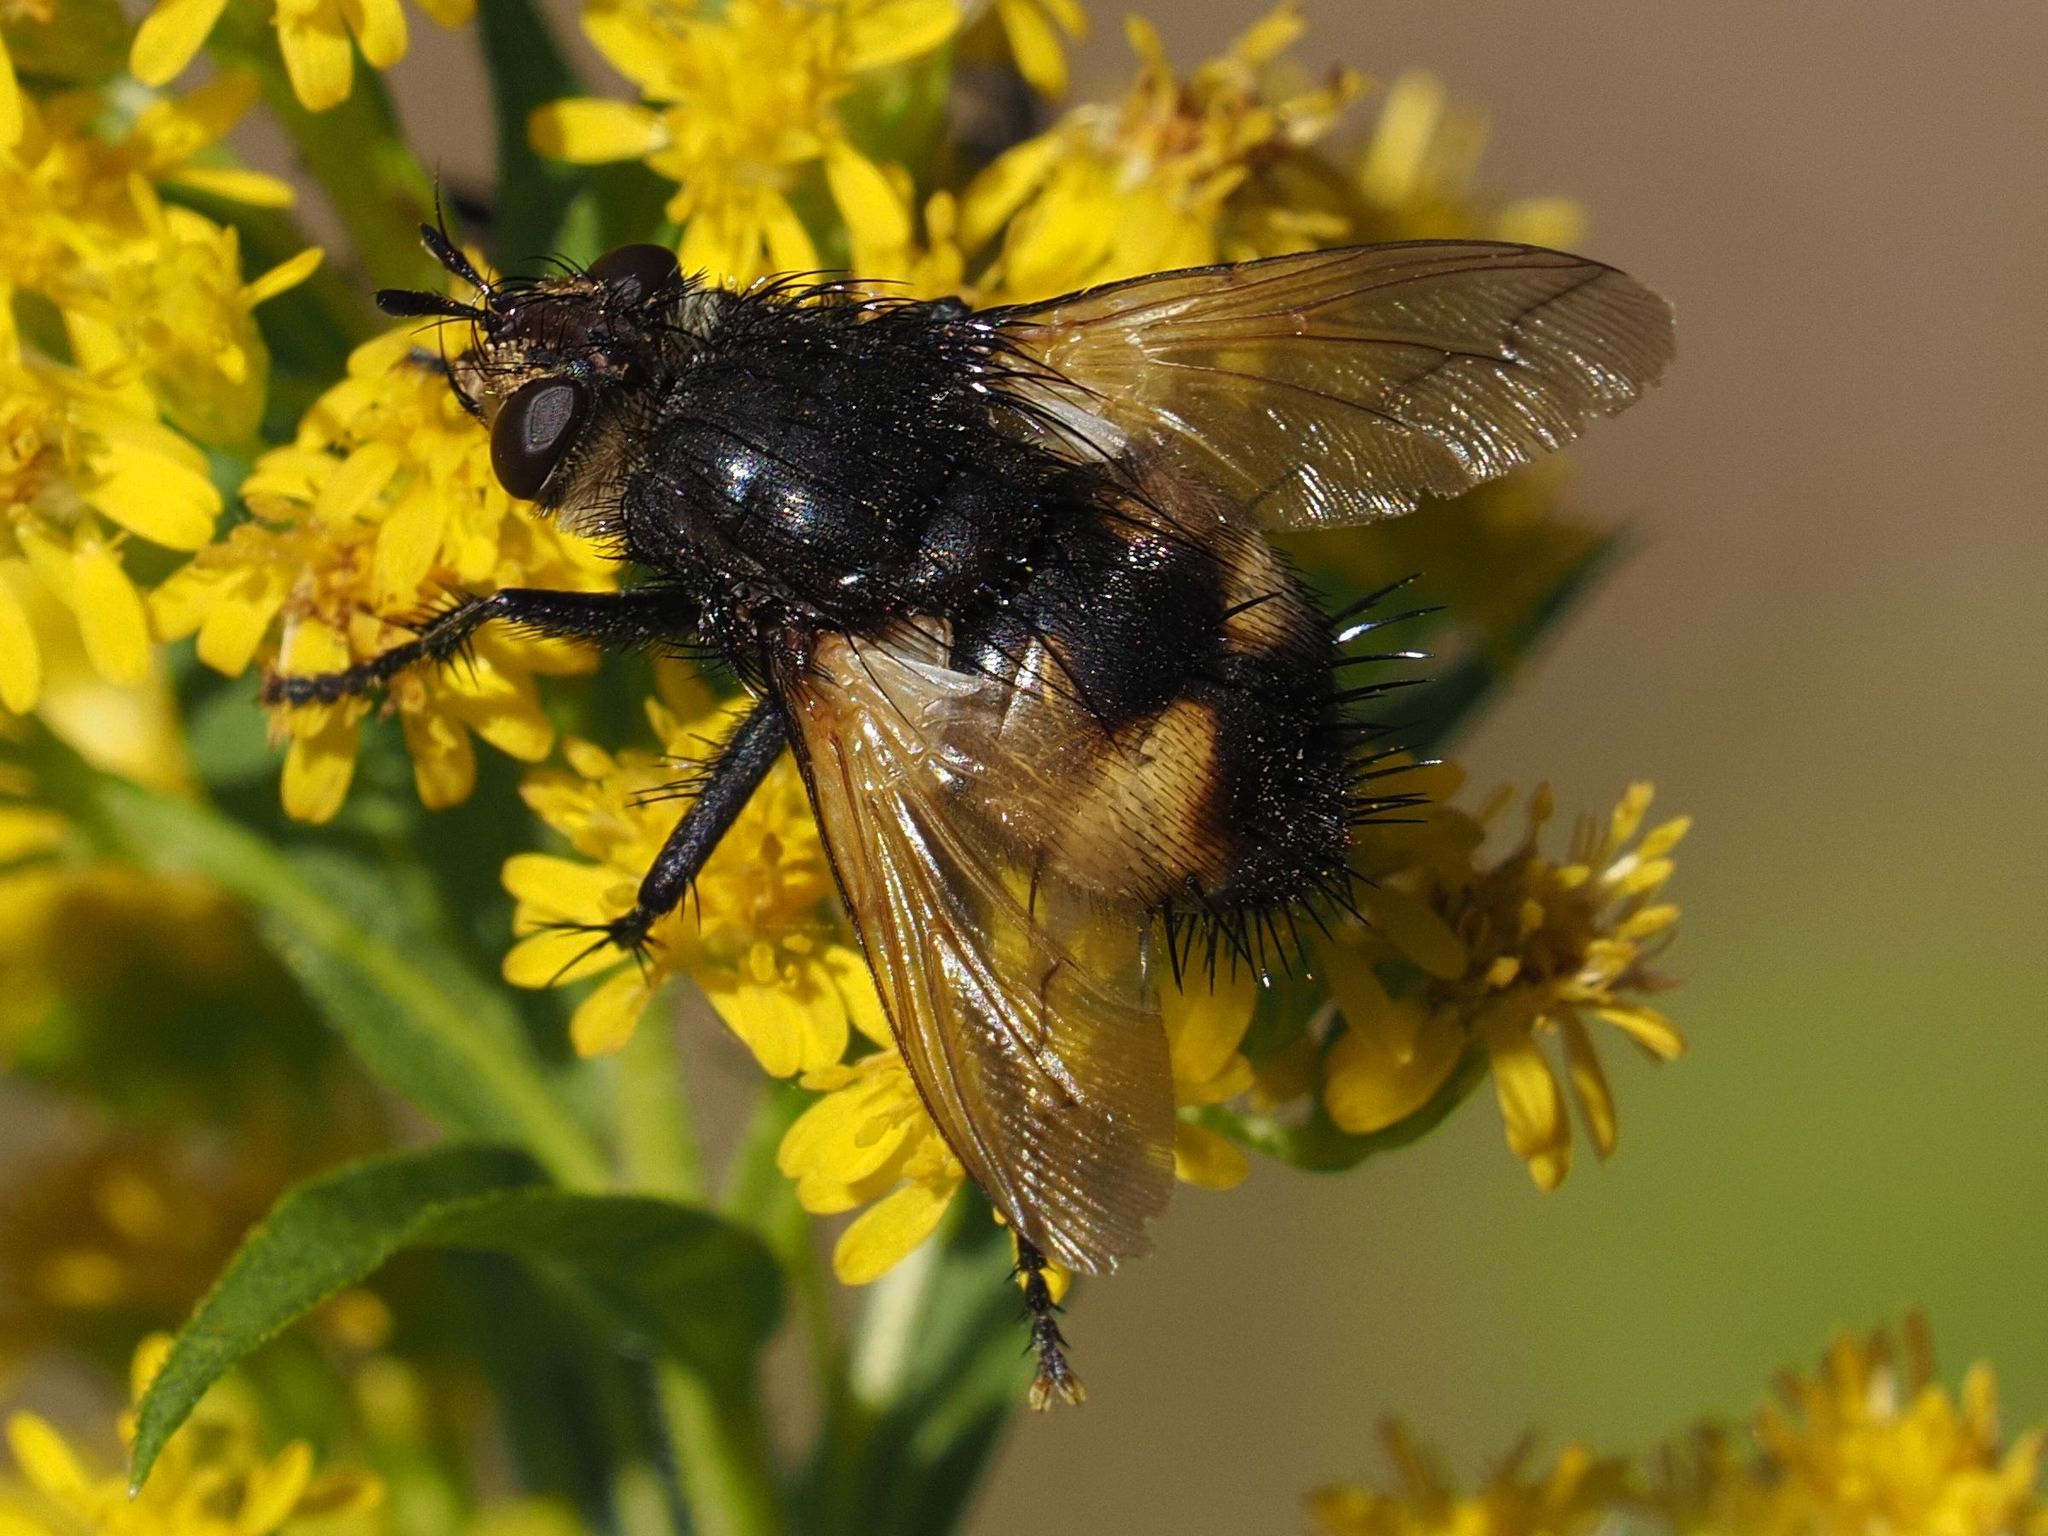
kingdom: Animalia
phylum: Arthropoda
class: Insecta
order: Diptera
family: Tachinidae
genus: Nowickia
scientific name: Nowickia ferox
